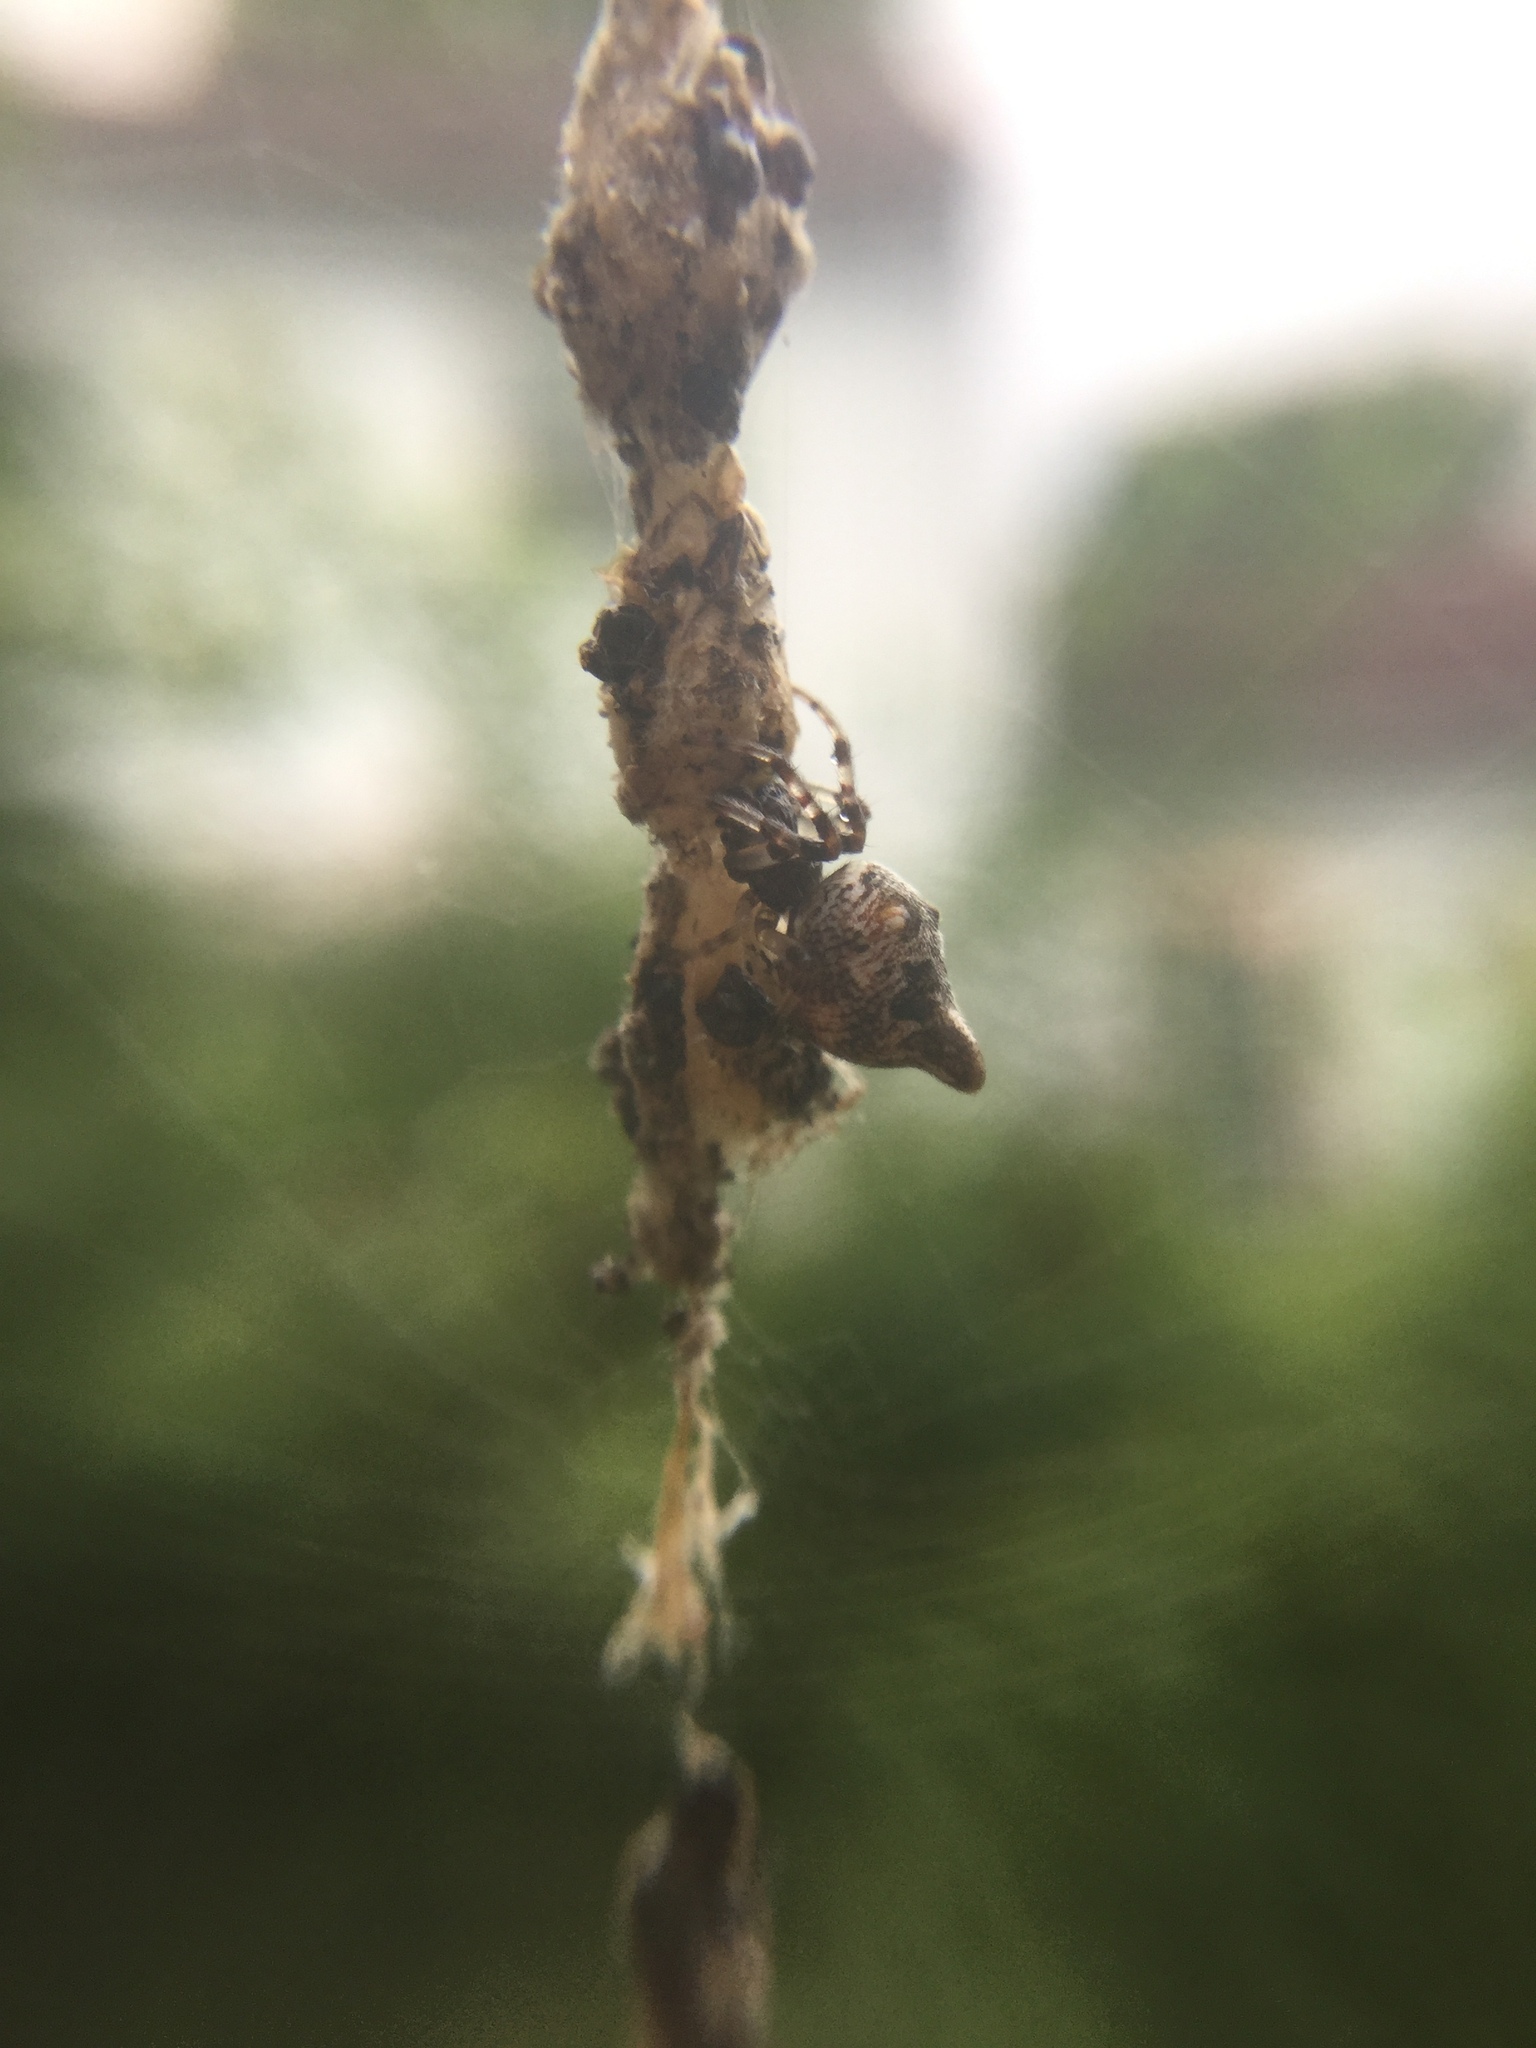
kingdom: Animalia
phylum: Arthropoda
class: Arachnida
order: Araneae
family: Araneidae
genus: Cyclosa
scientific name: Cyclosa turbinata
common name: Orb weavers
